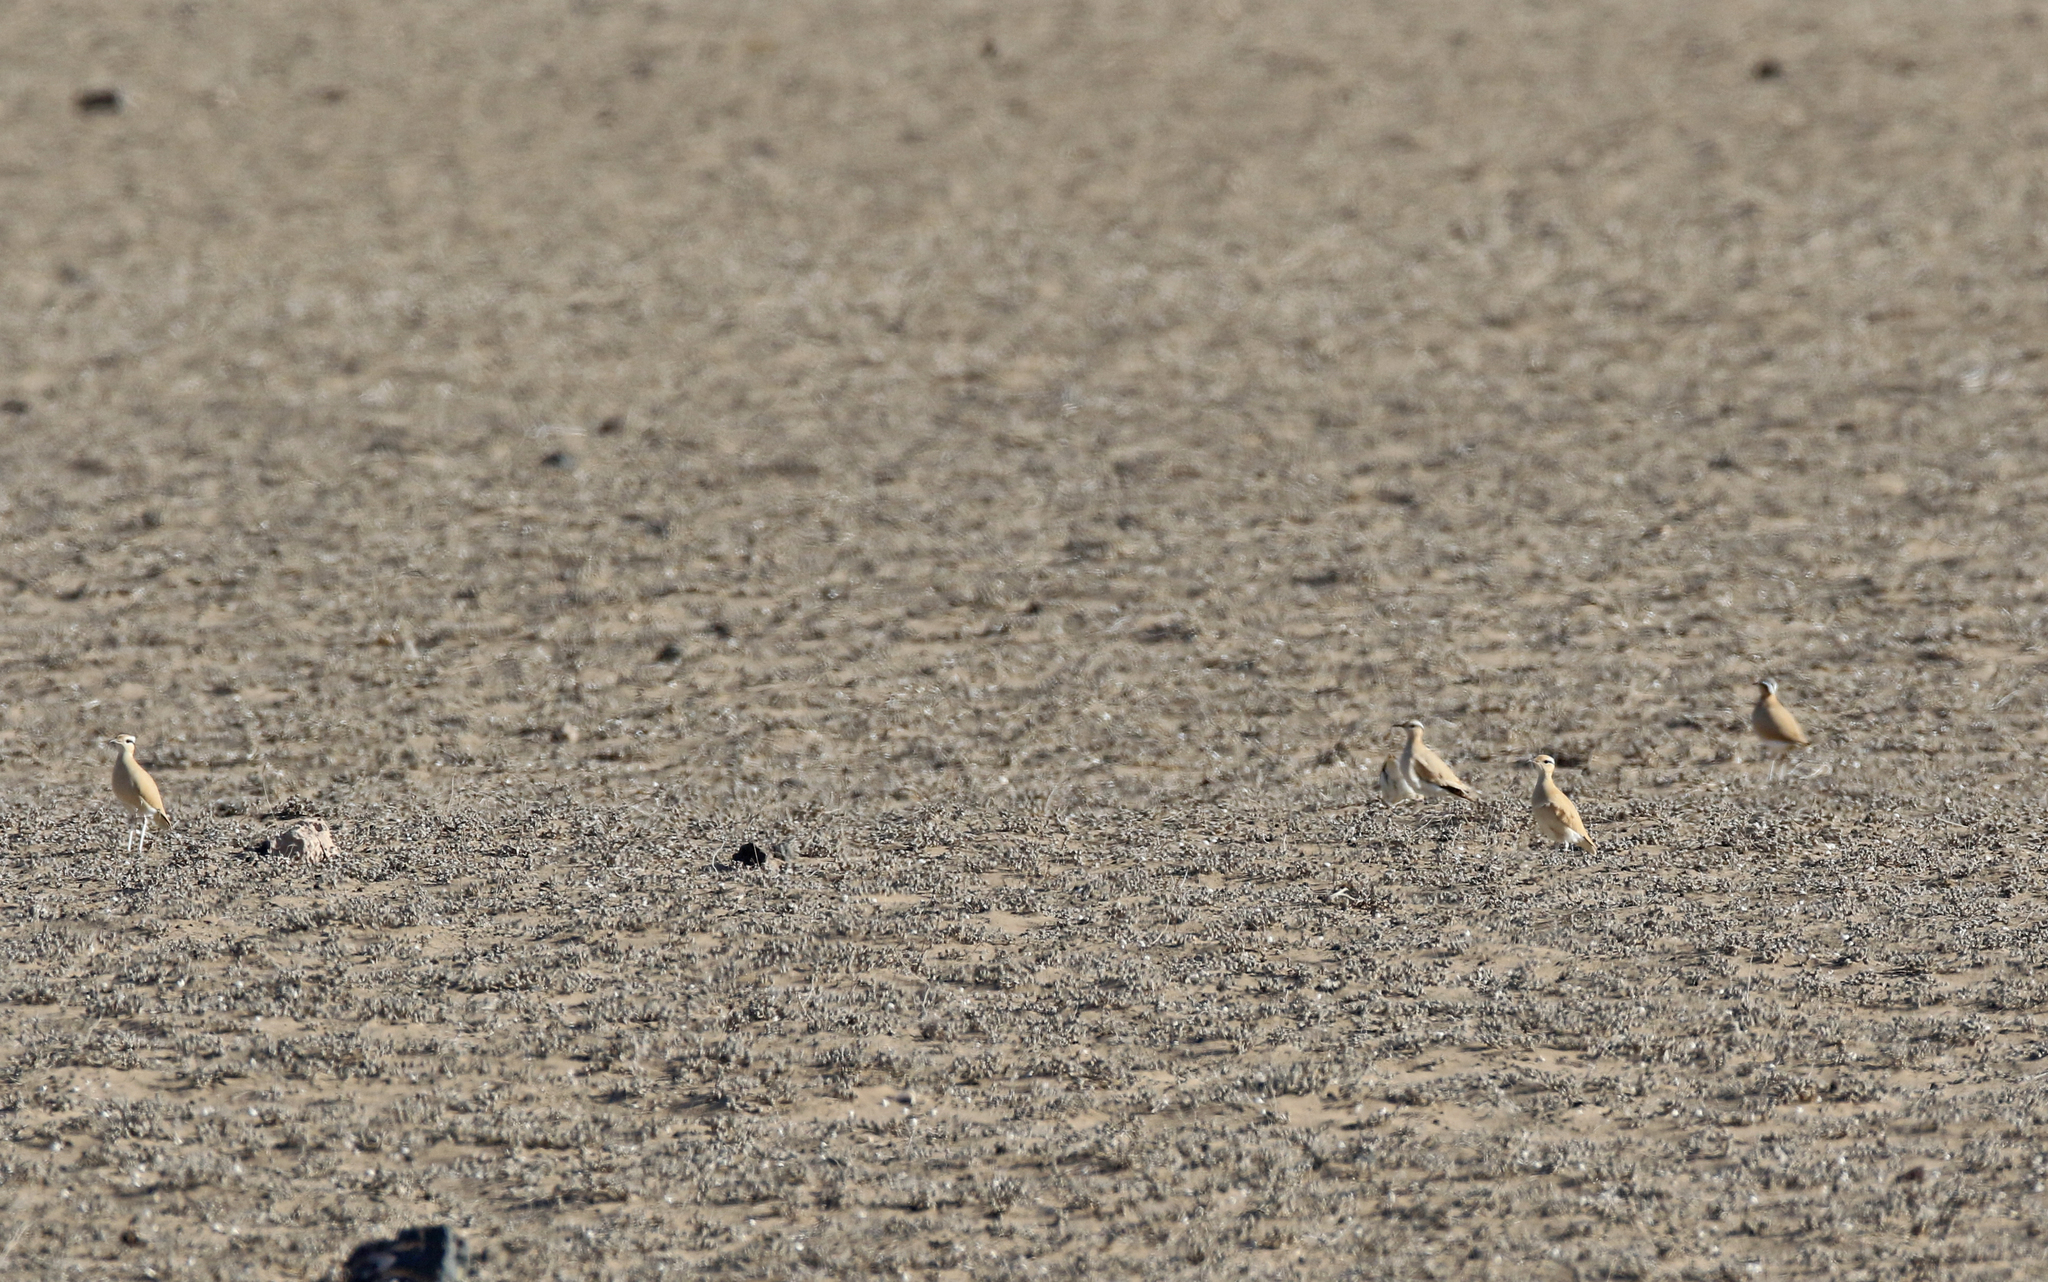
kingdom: Animalia
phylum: Chordata
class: Aves
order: Charadriiformes
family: Glareolidae
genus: Cursorius
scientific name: Cursorius cursor
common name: Cream-colored courser
